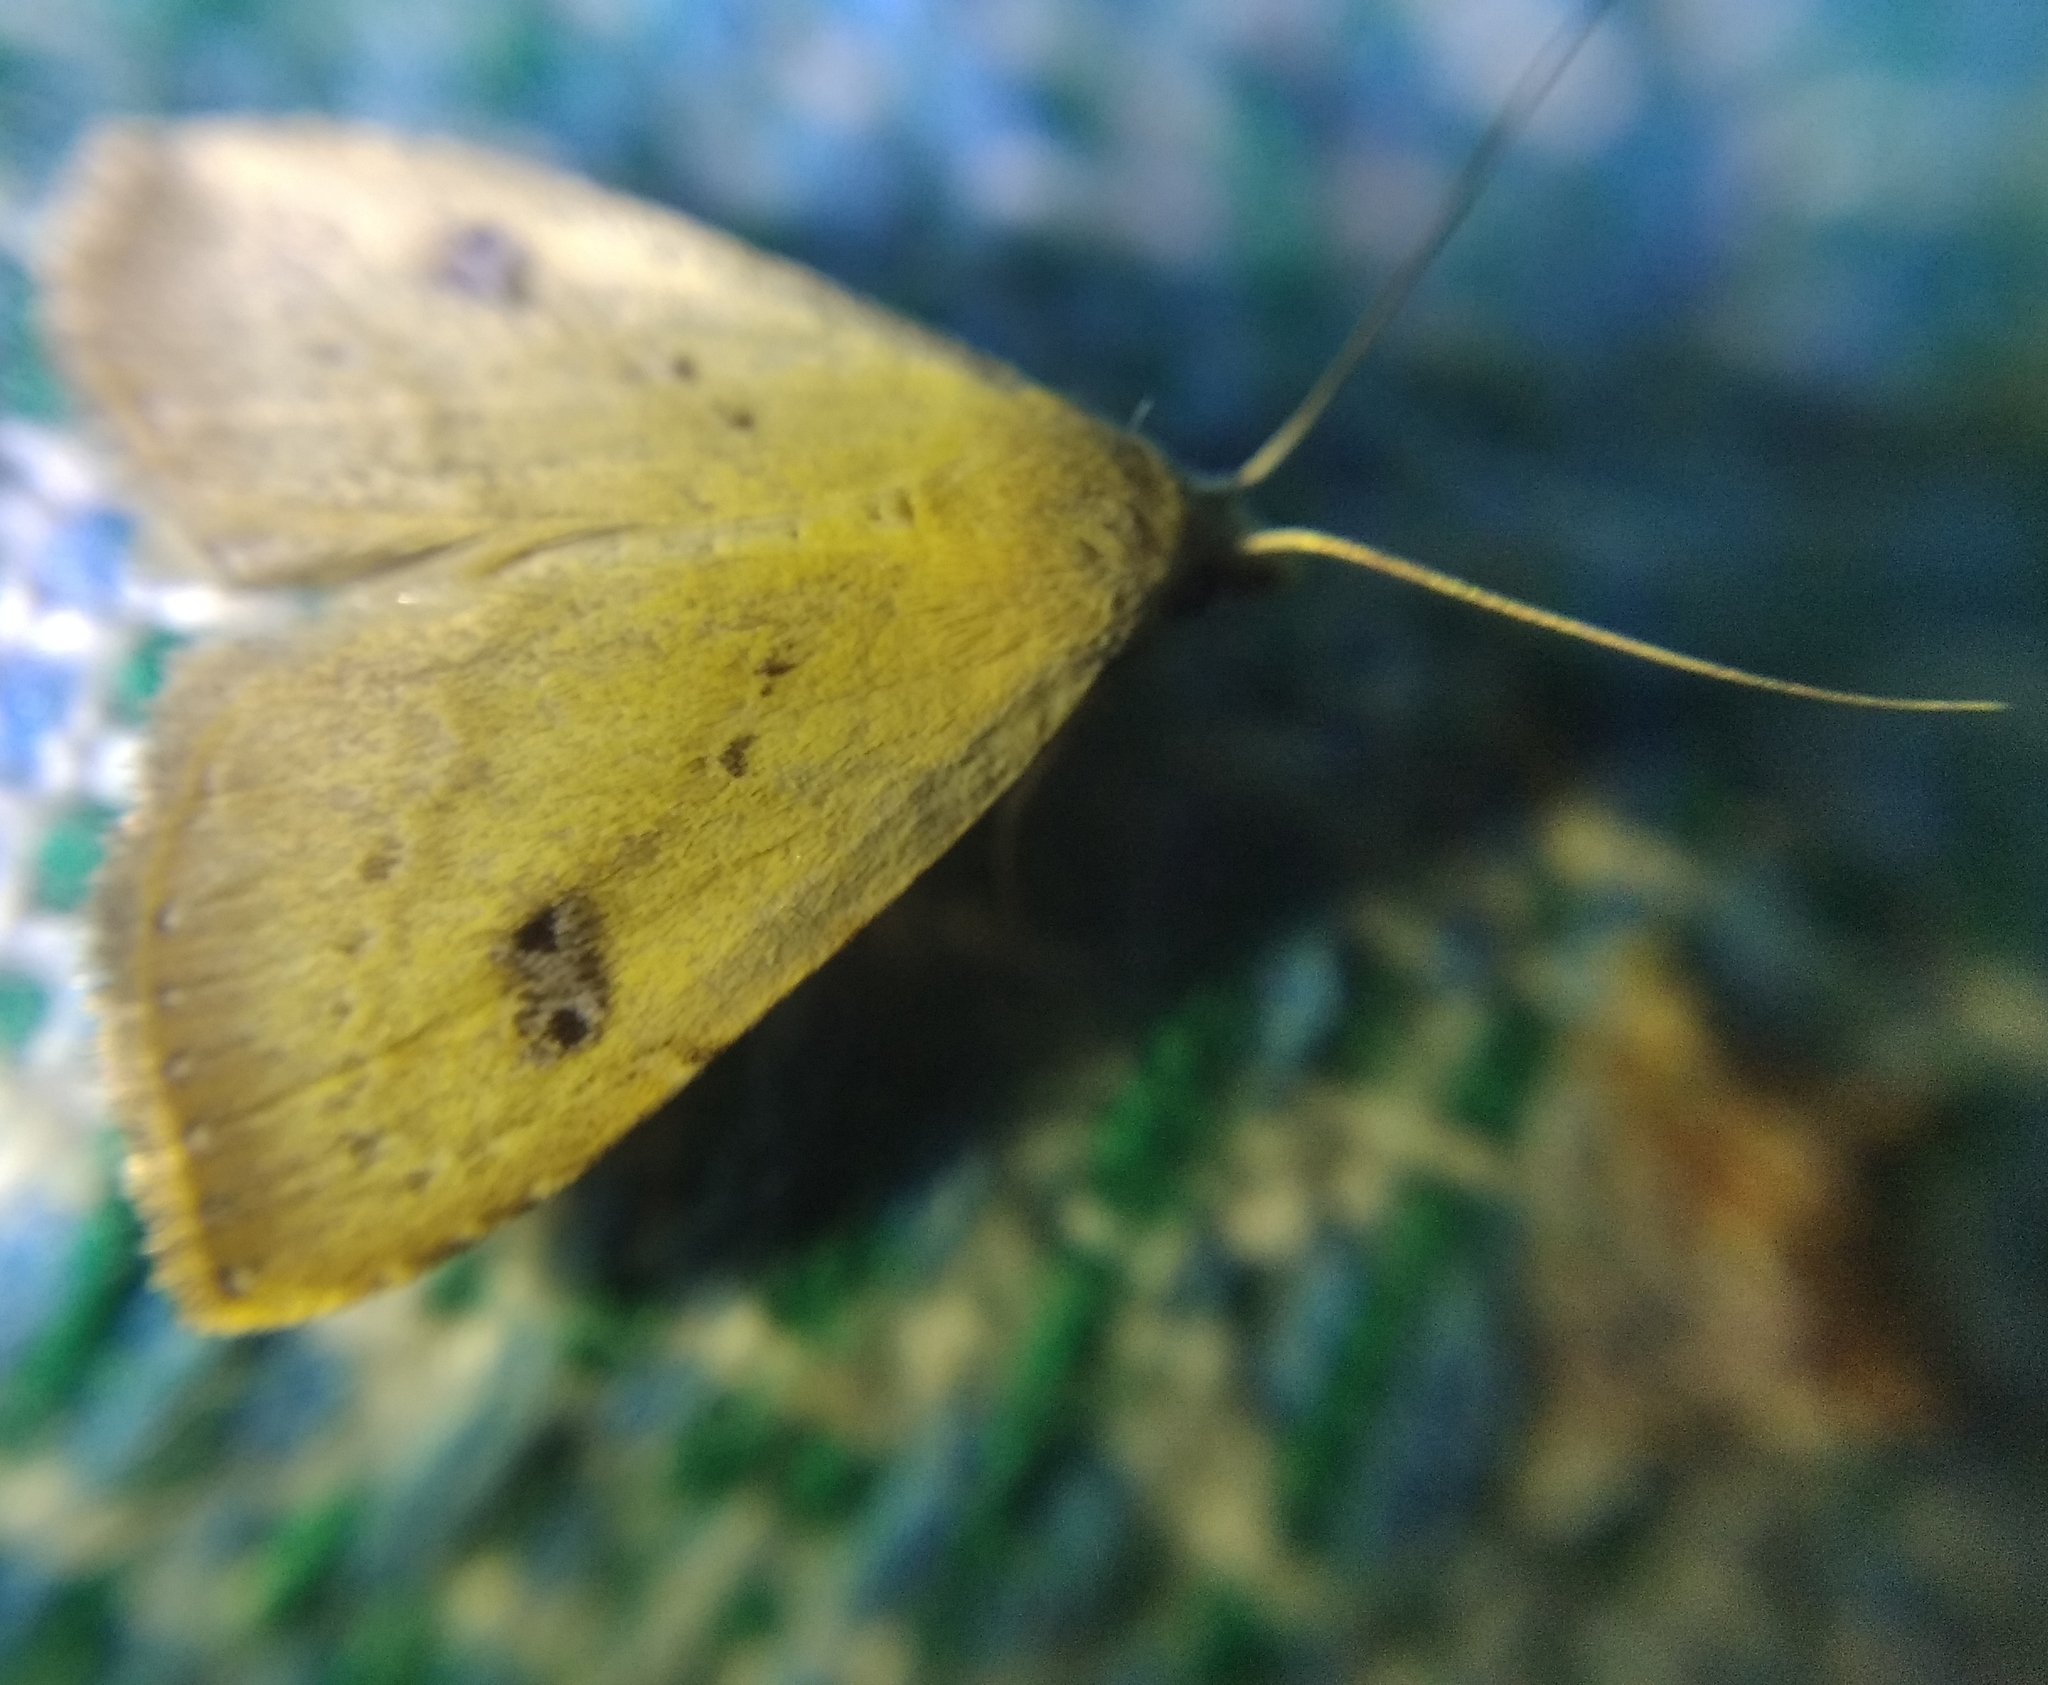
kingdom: Animalia
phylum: Arthropoda
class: Insecta
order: Lepidoptera
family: Erebidae
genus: Rivula
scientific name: Rivula sericealis
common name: Straw dot
